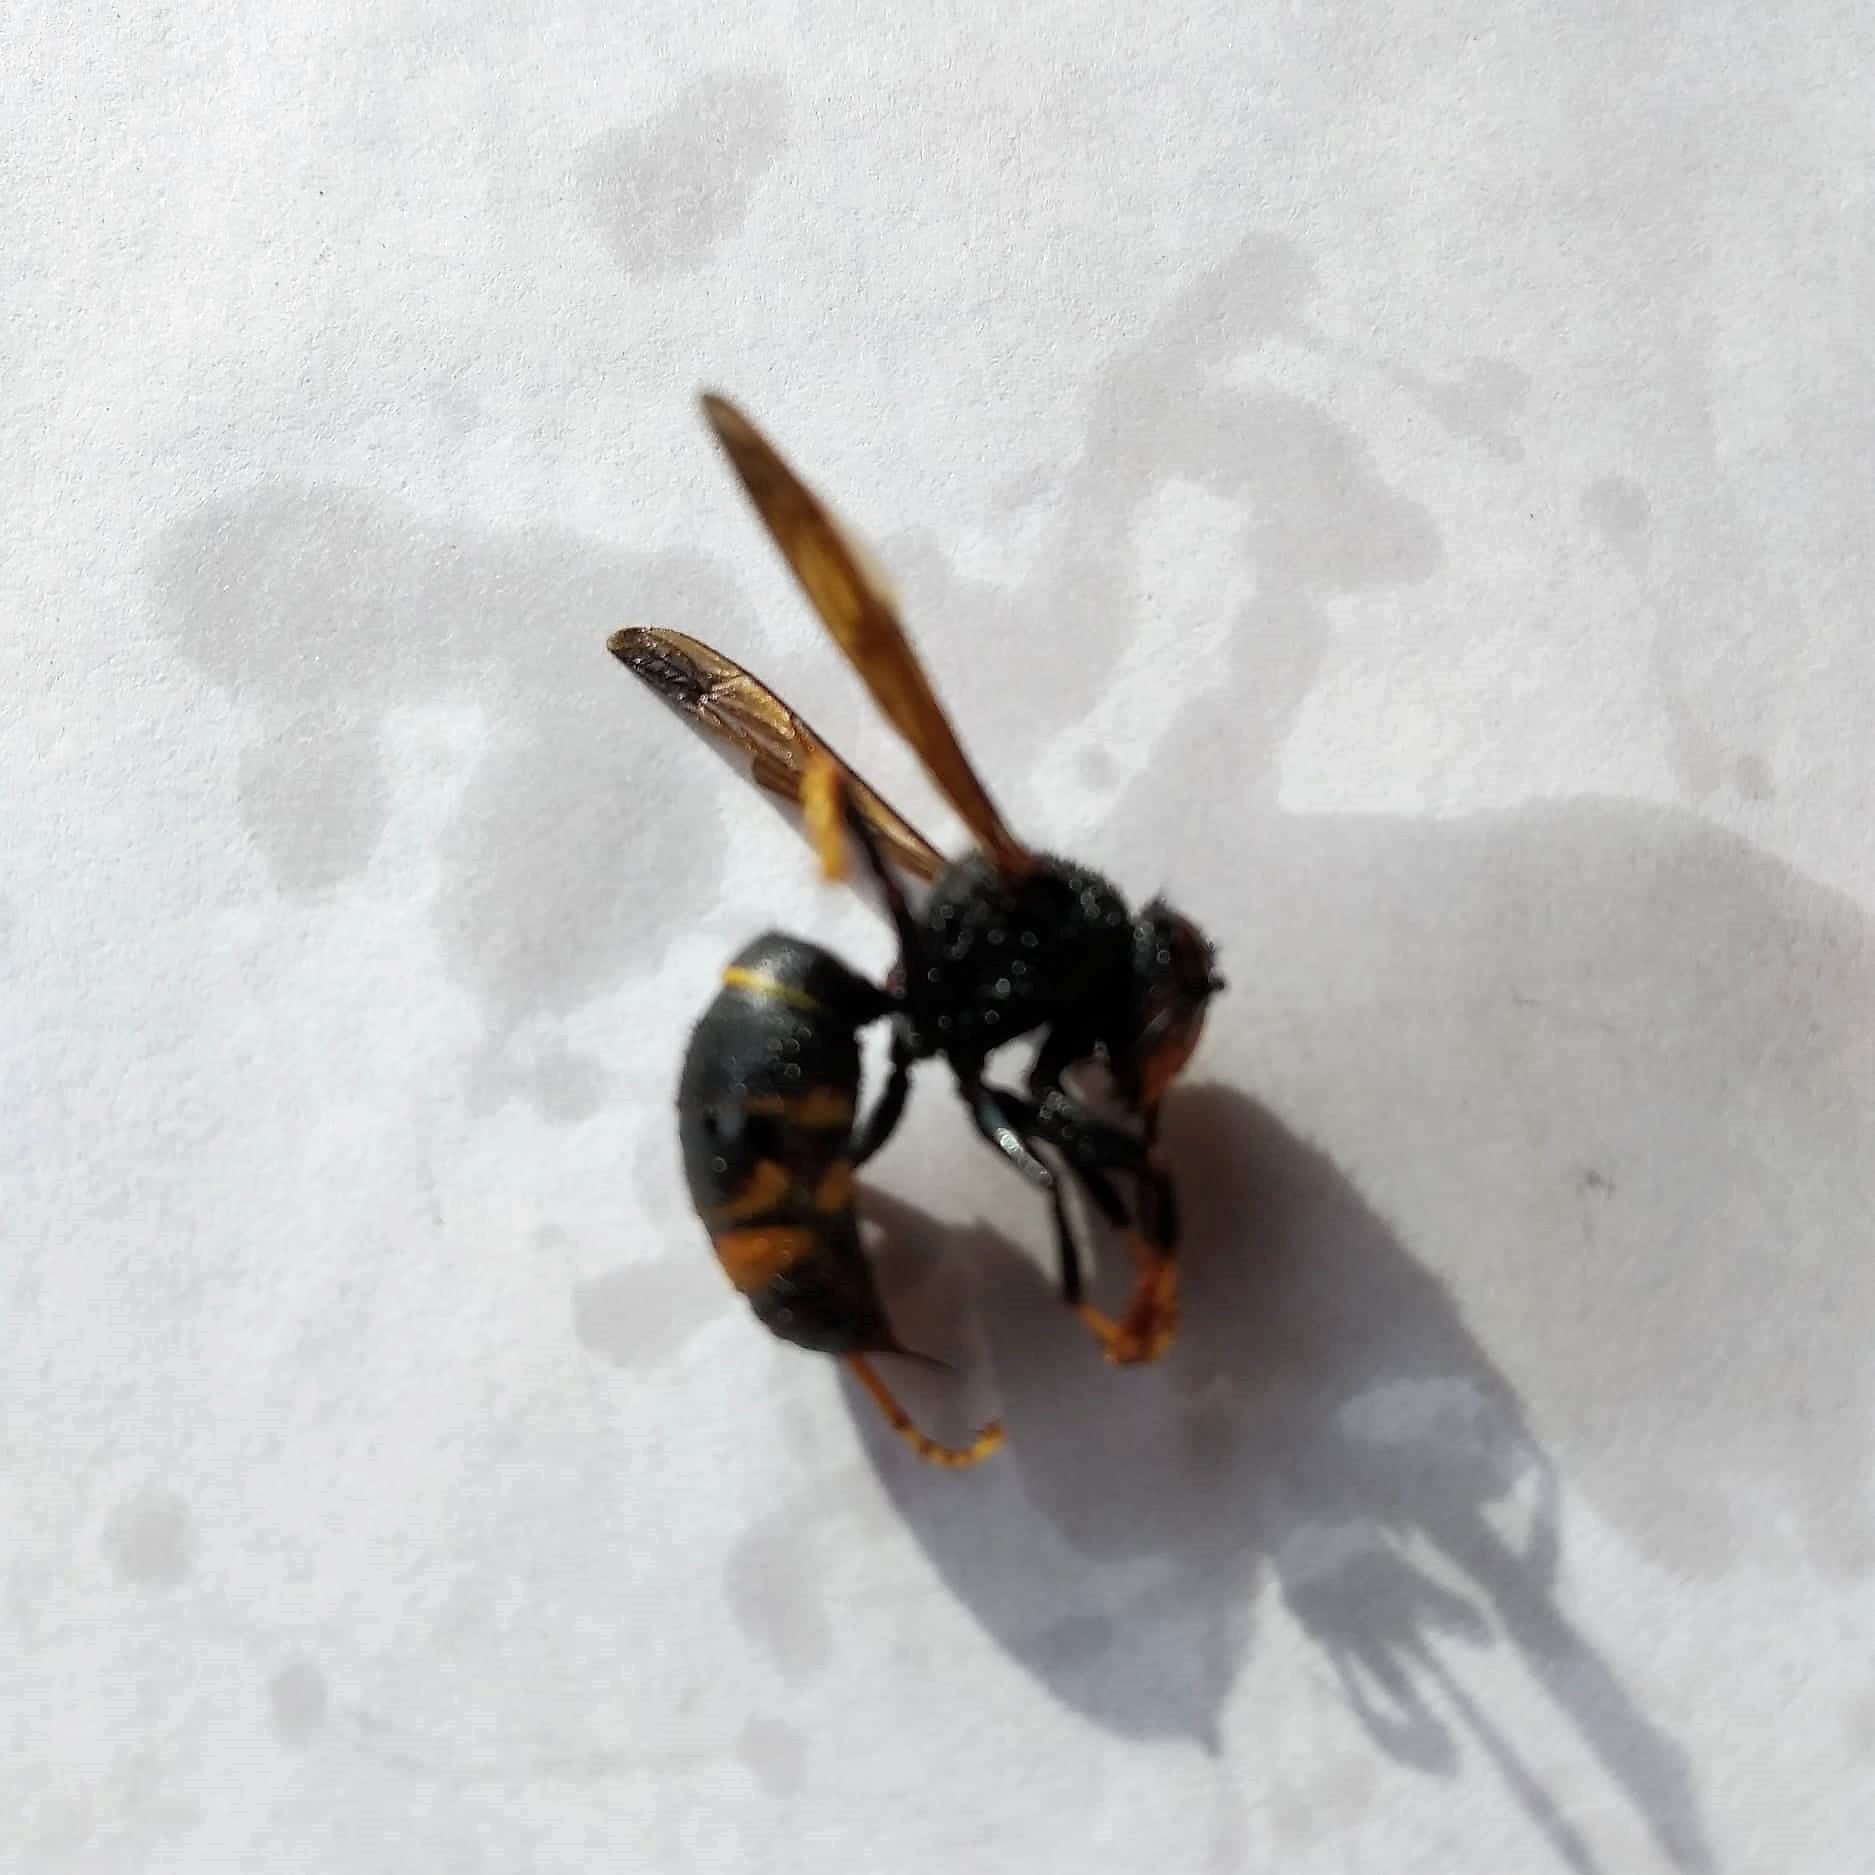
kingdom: Animalia
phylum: Arthropoda
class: Insecta
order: Hymenoptera
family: Vespidae
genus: Vespa
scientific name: Vespa velutina
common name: Asian hornet
